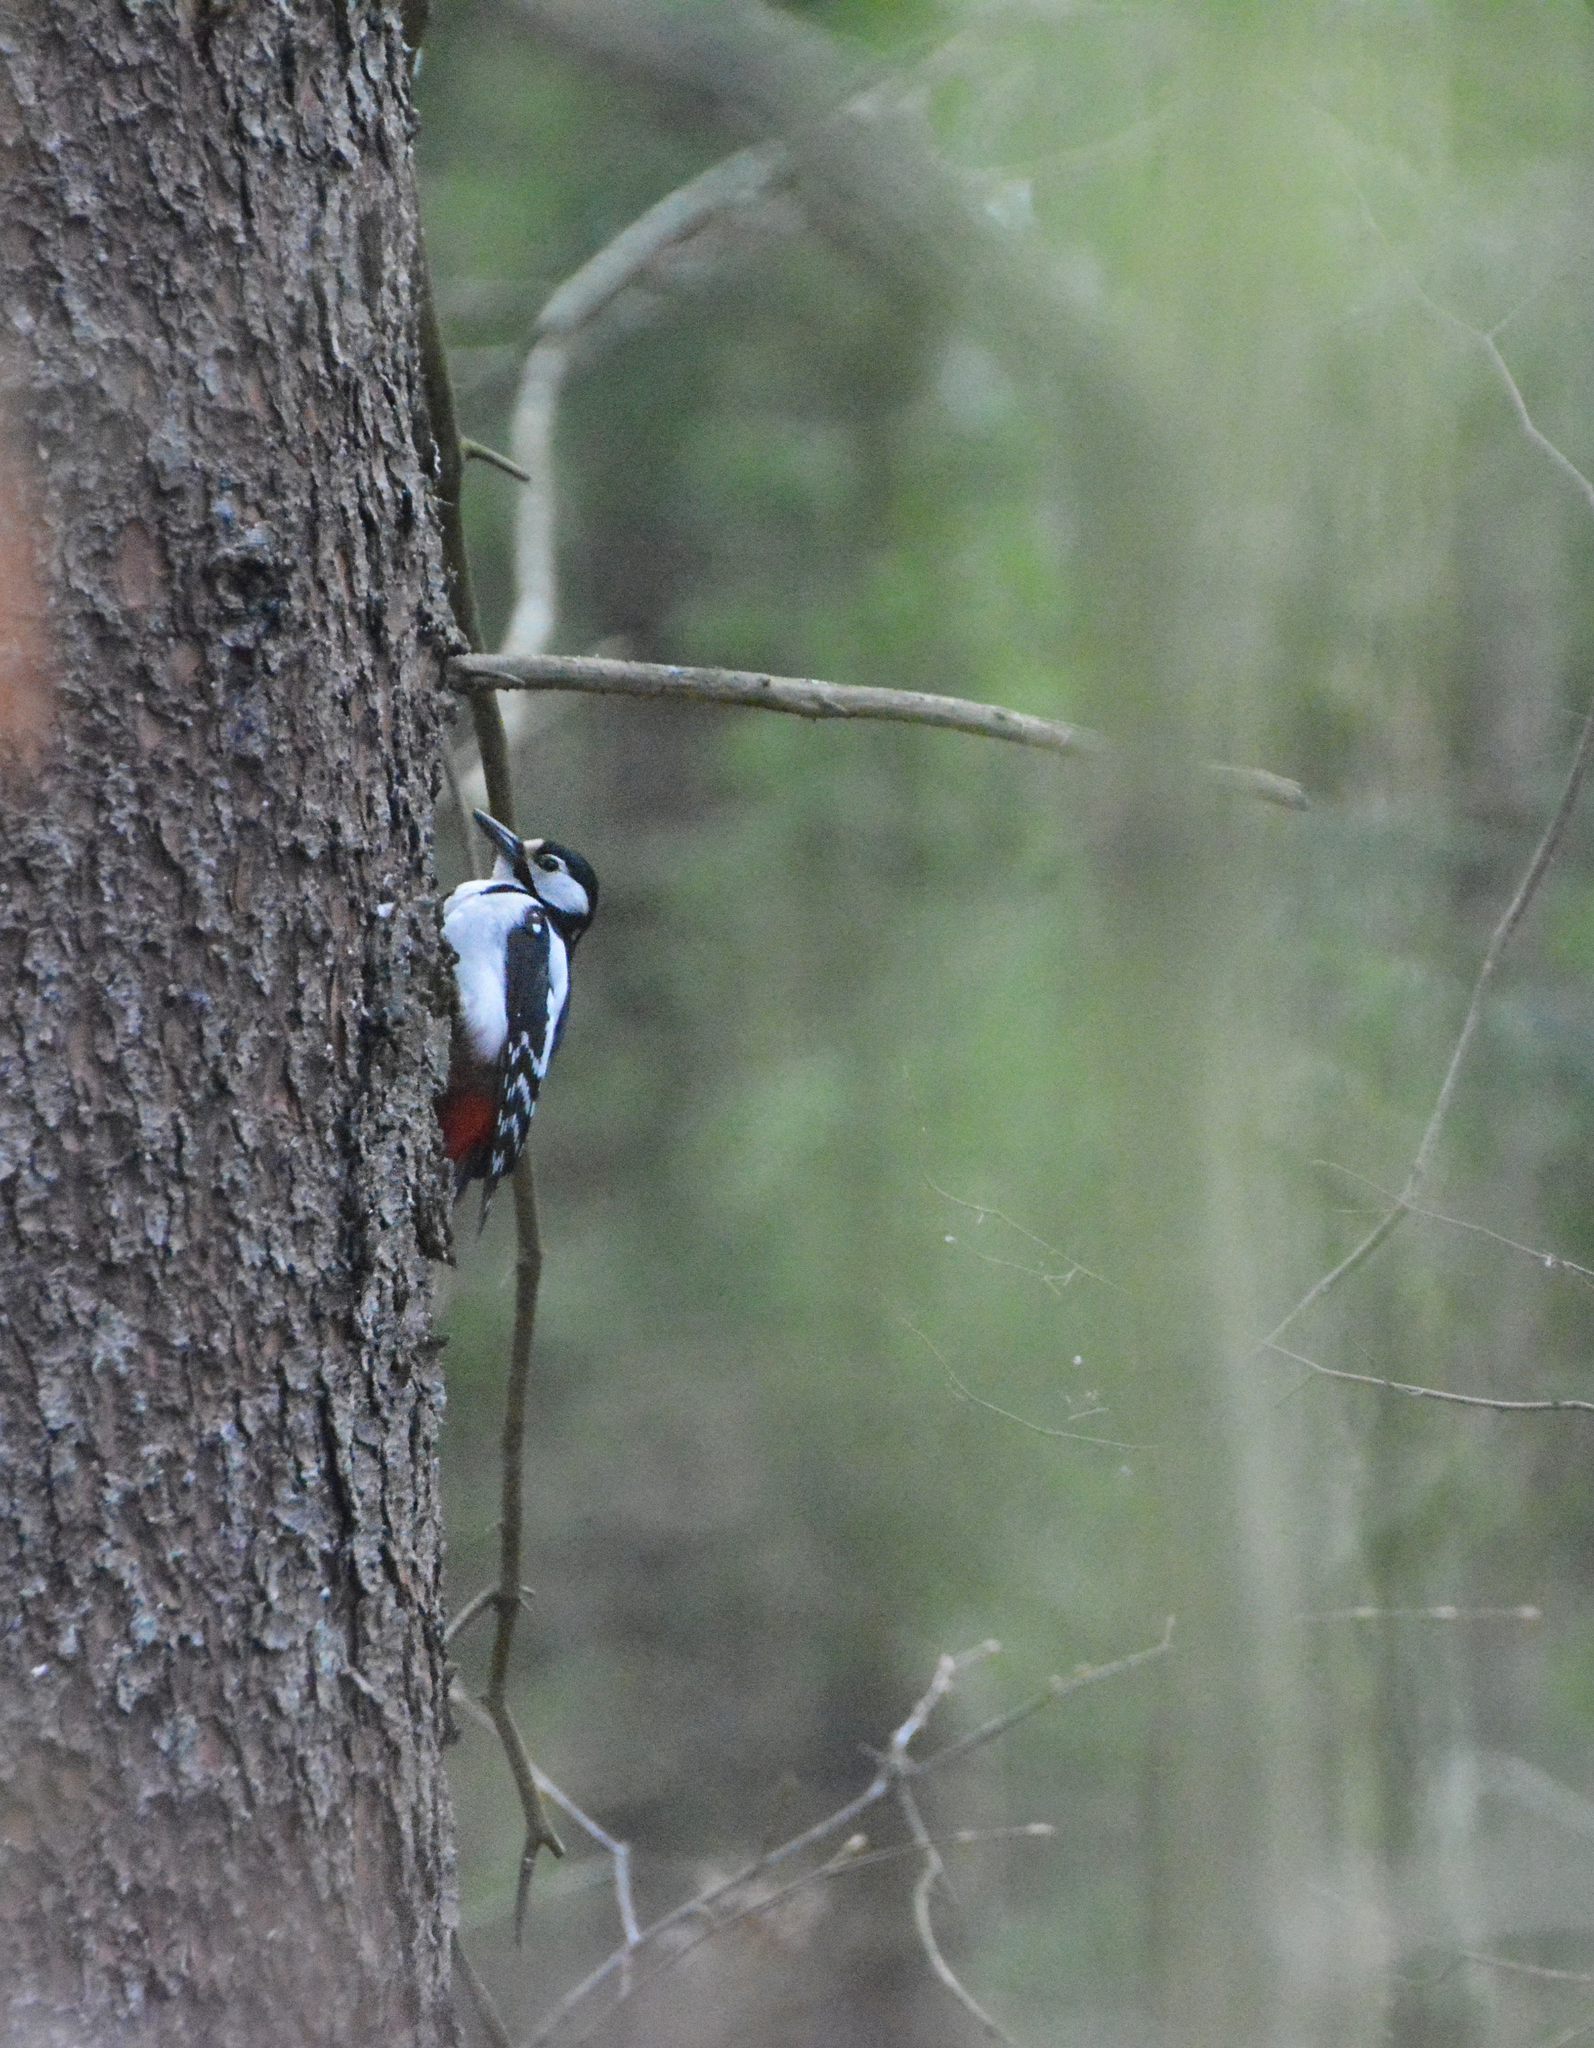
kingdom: Animalia
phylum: Chordata
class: Aves
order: Piciformes
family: Picidae
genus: Dendrocopos
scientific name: Dendrocopos major
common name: Great spotted woodpecker
